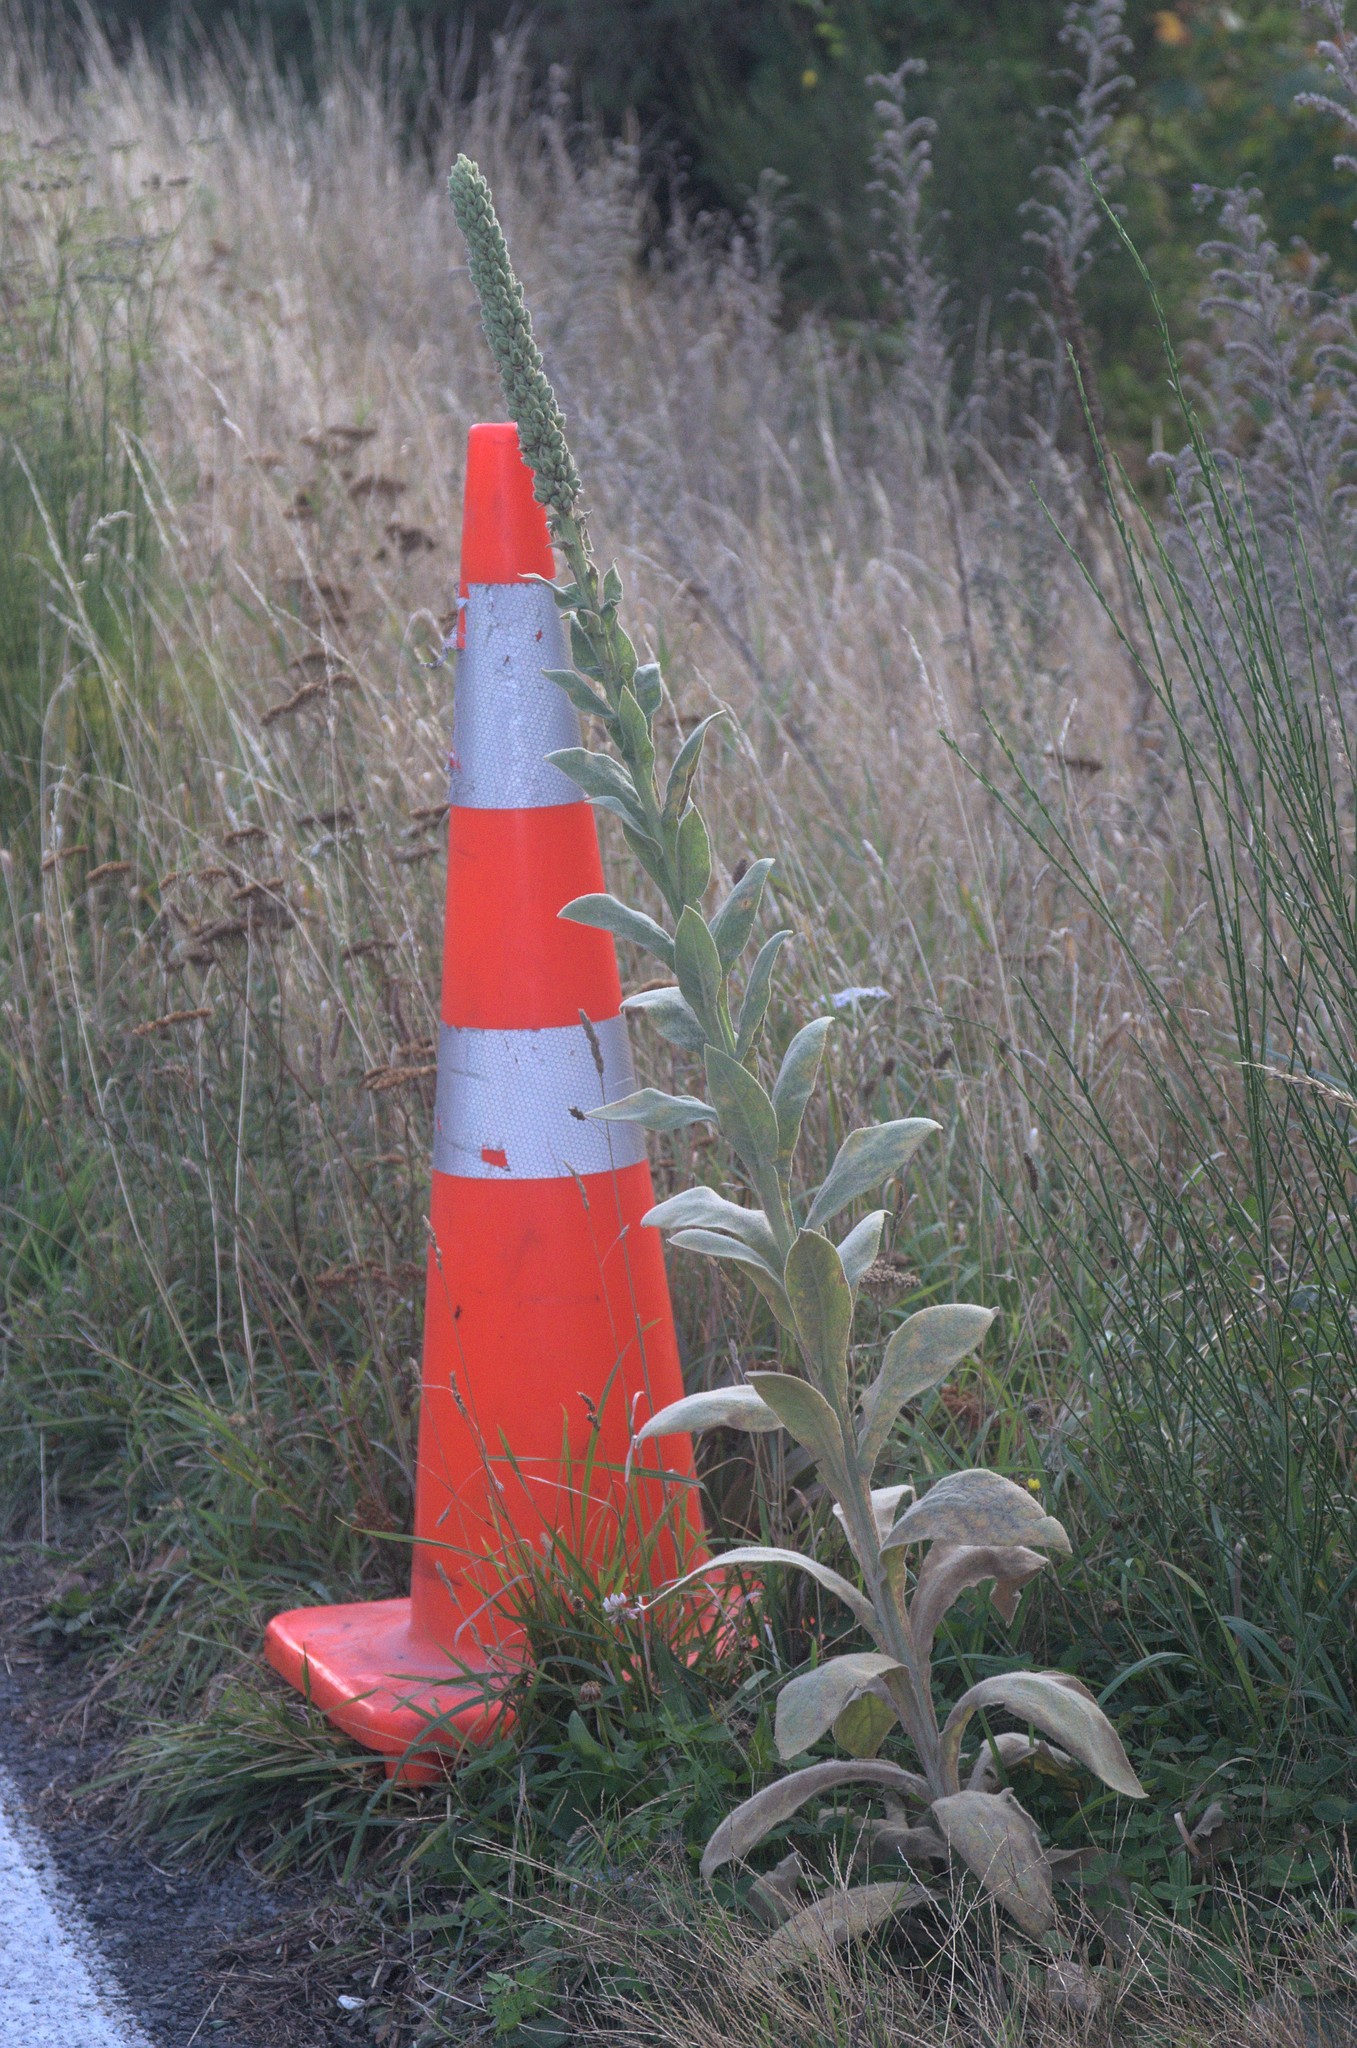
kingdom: Plantae
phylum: Tracheophyta
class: Magnoliopsida
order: Lamiales
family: Scrophulariaceae
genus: Verbascum
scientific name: Verbascum thapsus
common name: Common mullein
